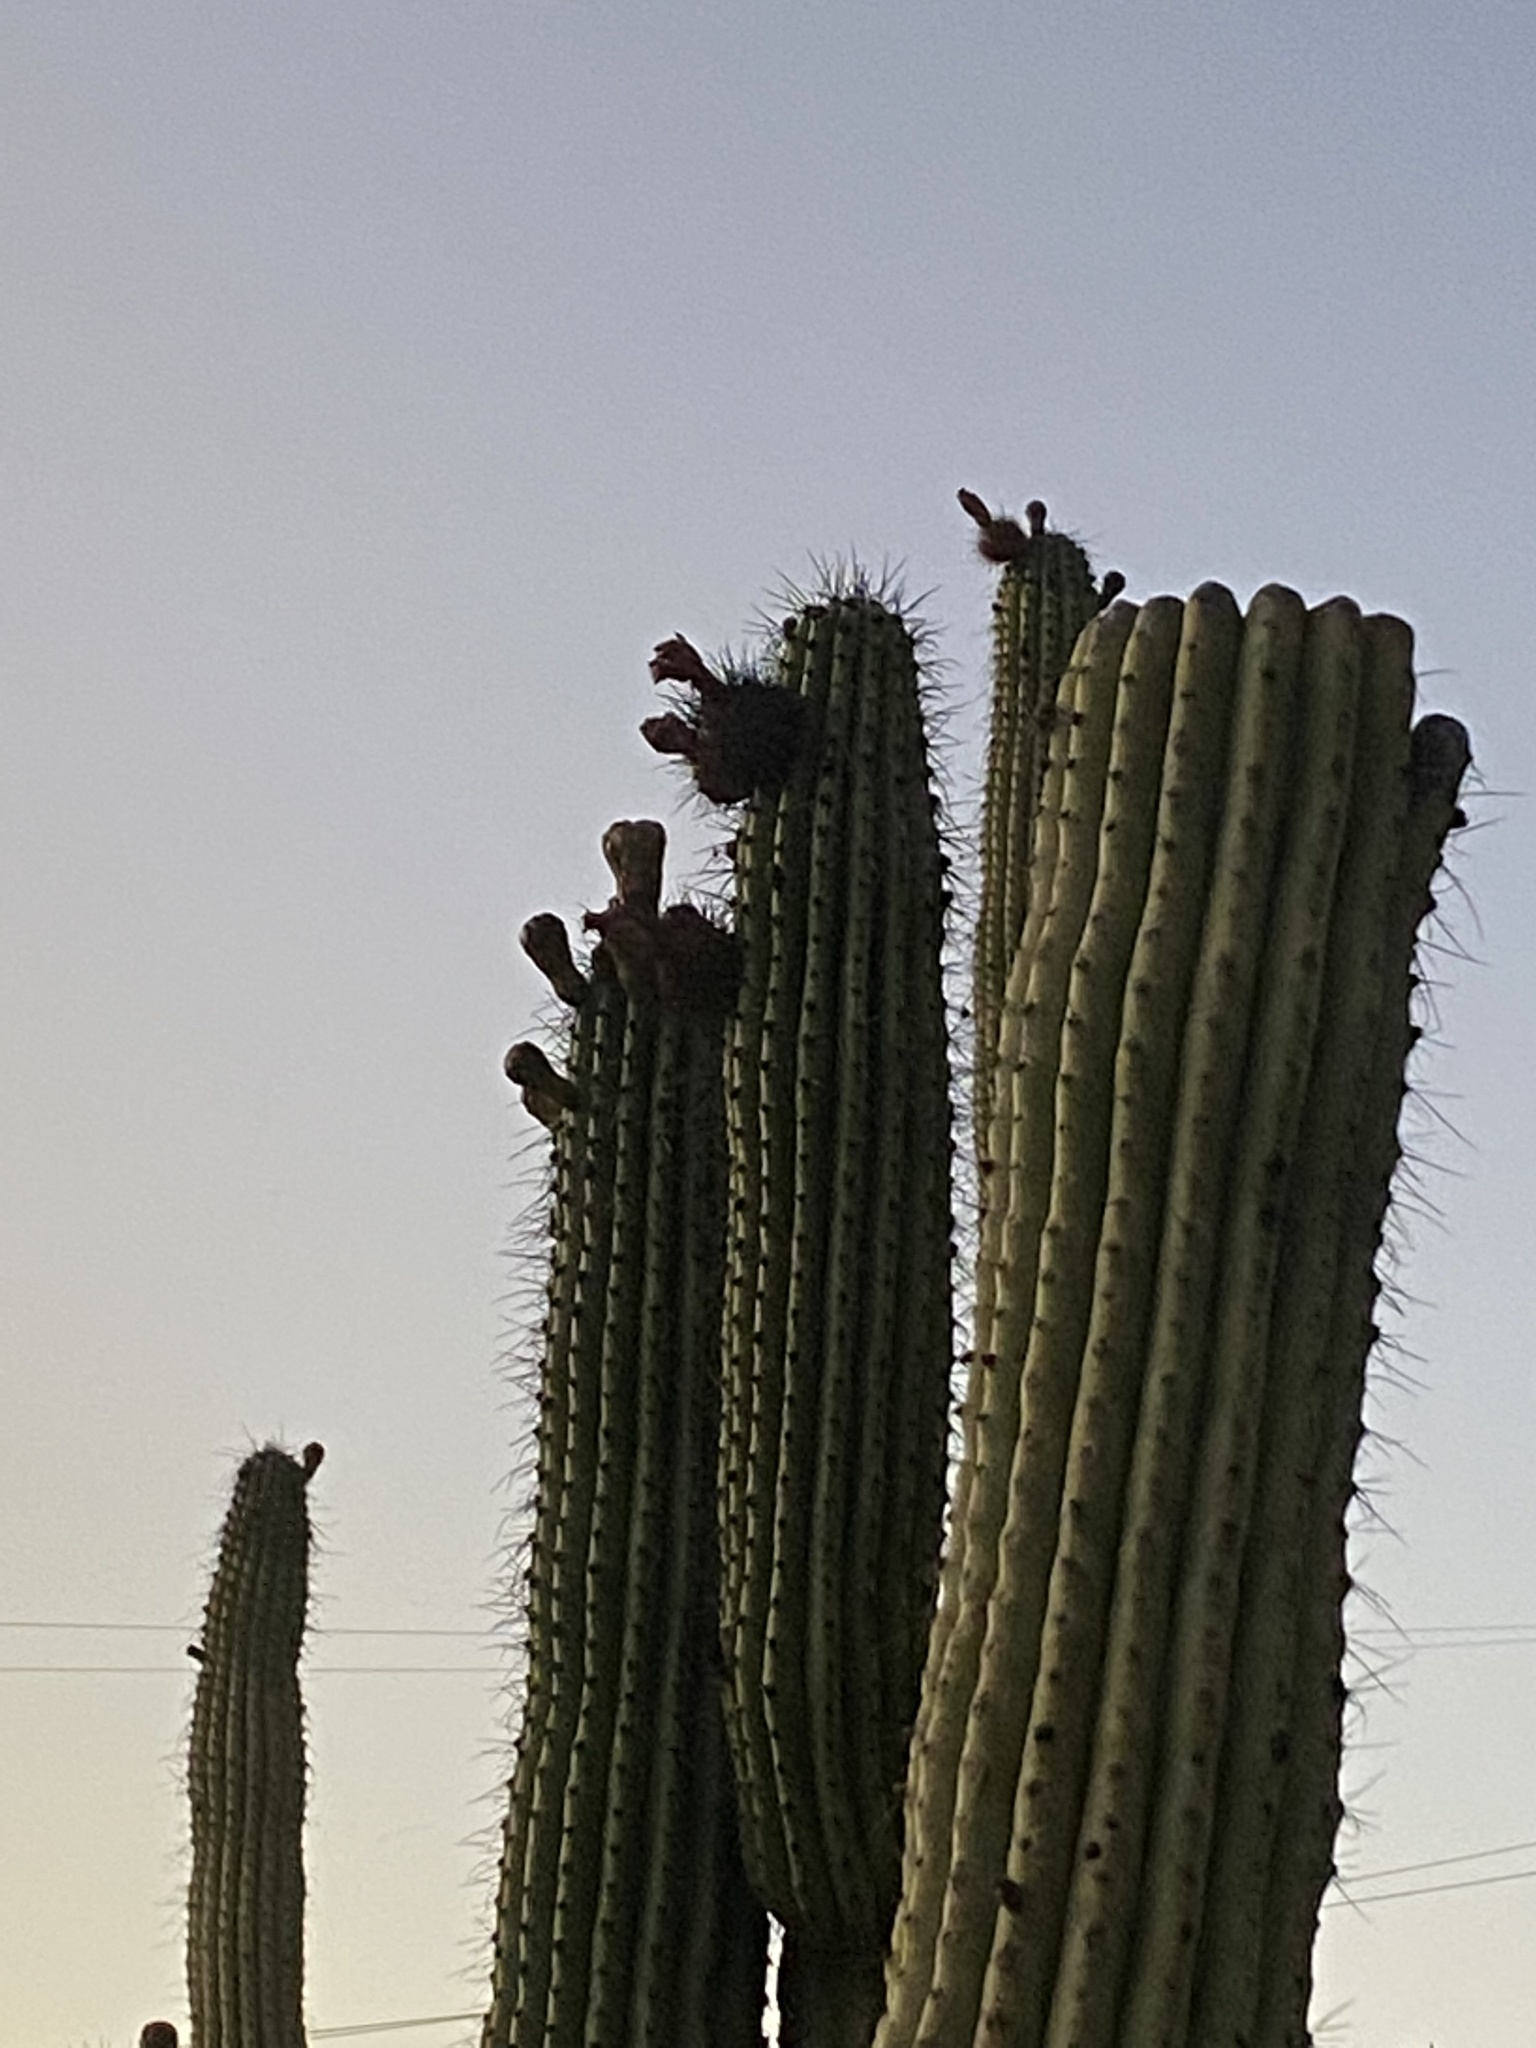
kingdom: Plantae
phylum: Tracheophyta
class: Magnoliopsida
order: Caryophyllales
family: Cactaceae
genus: Stenocereus
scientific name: Stenocereus thurberi
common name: Organ pipe cactus
